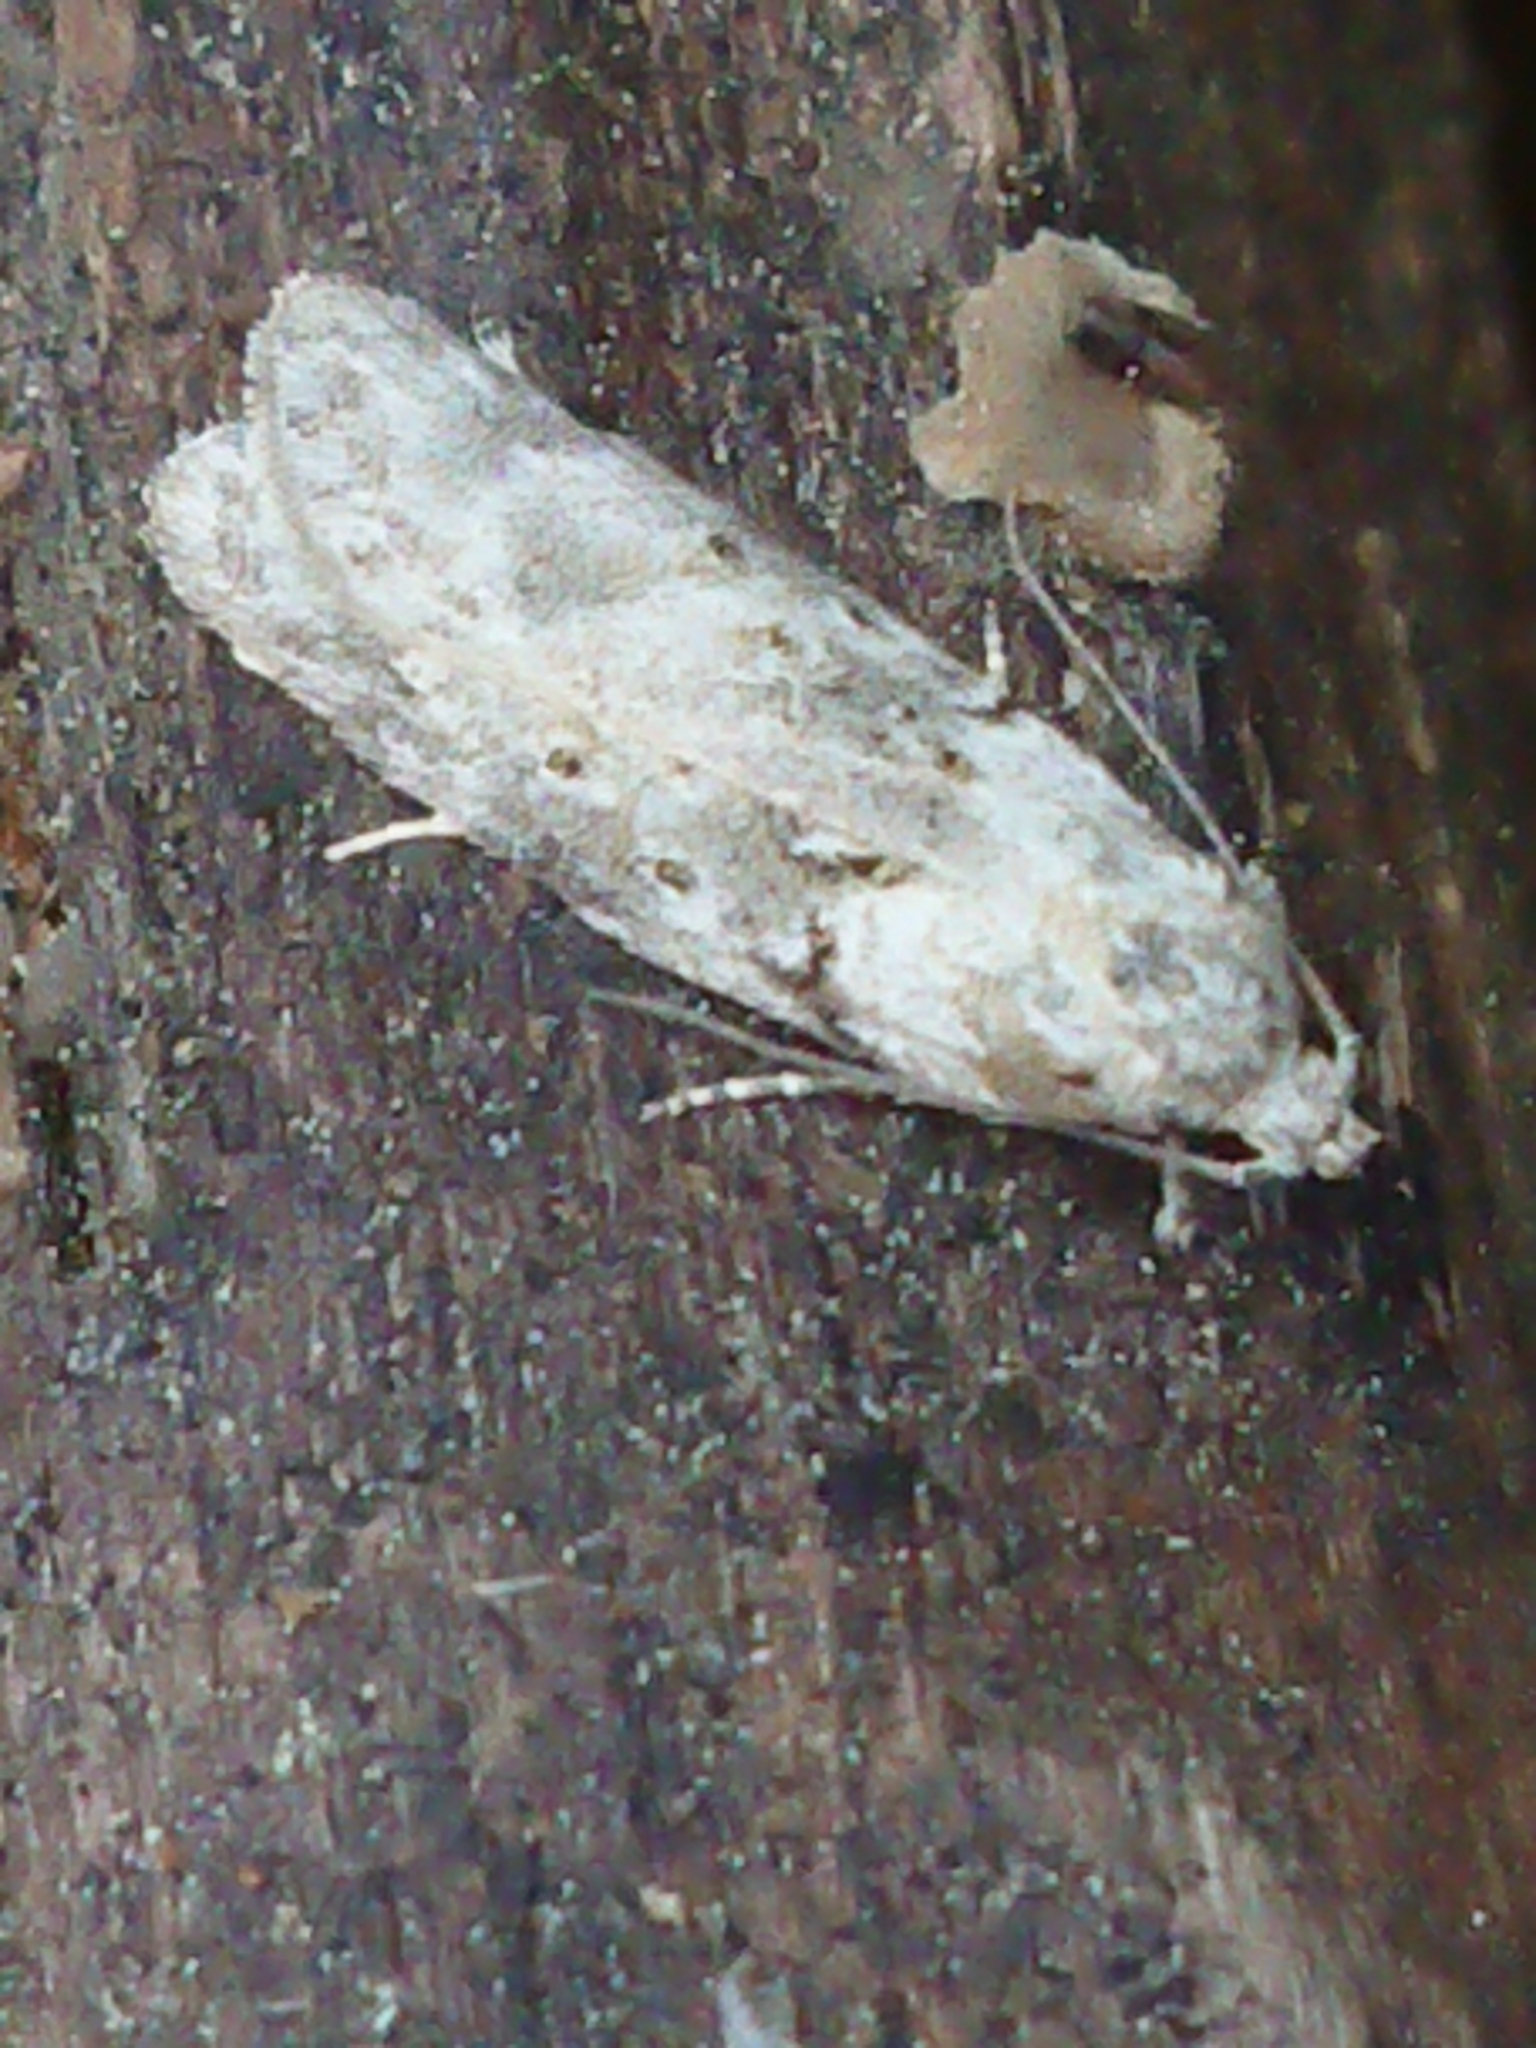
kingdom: Animalia
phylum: Arthropoda
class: Insecta
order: Lepidoptera
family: Oecophoridae
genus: Izatha
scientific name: Izatha convulsella
